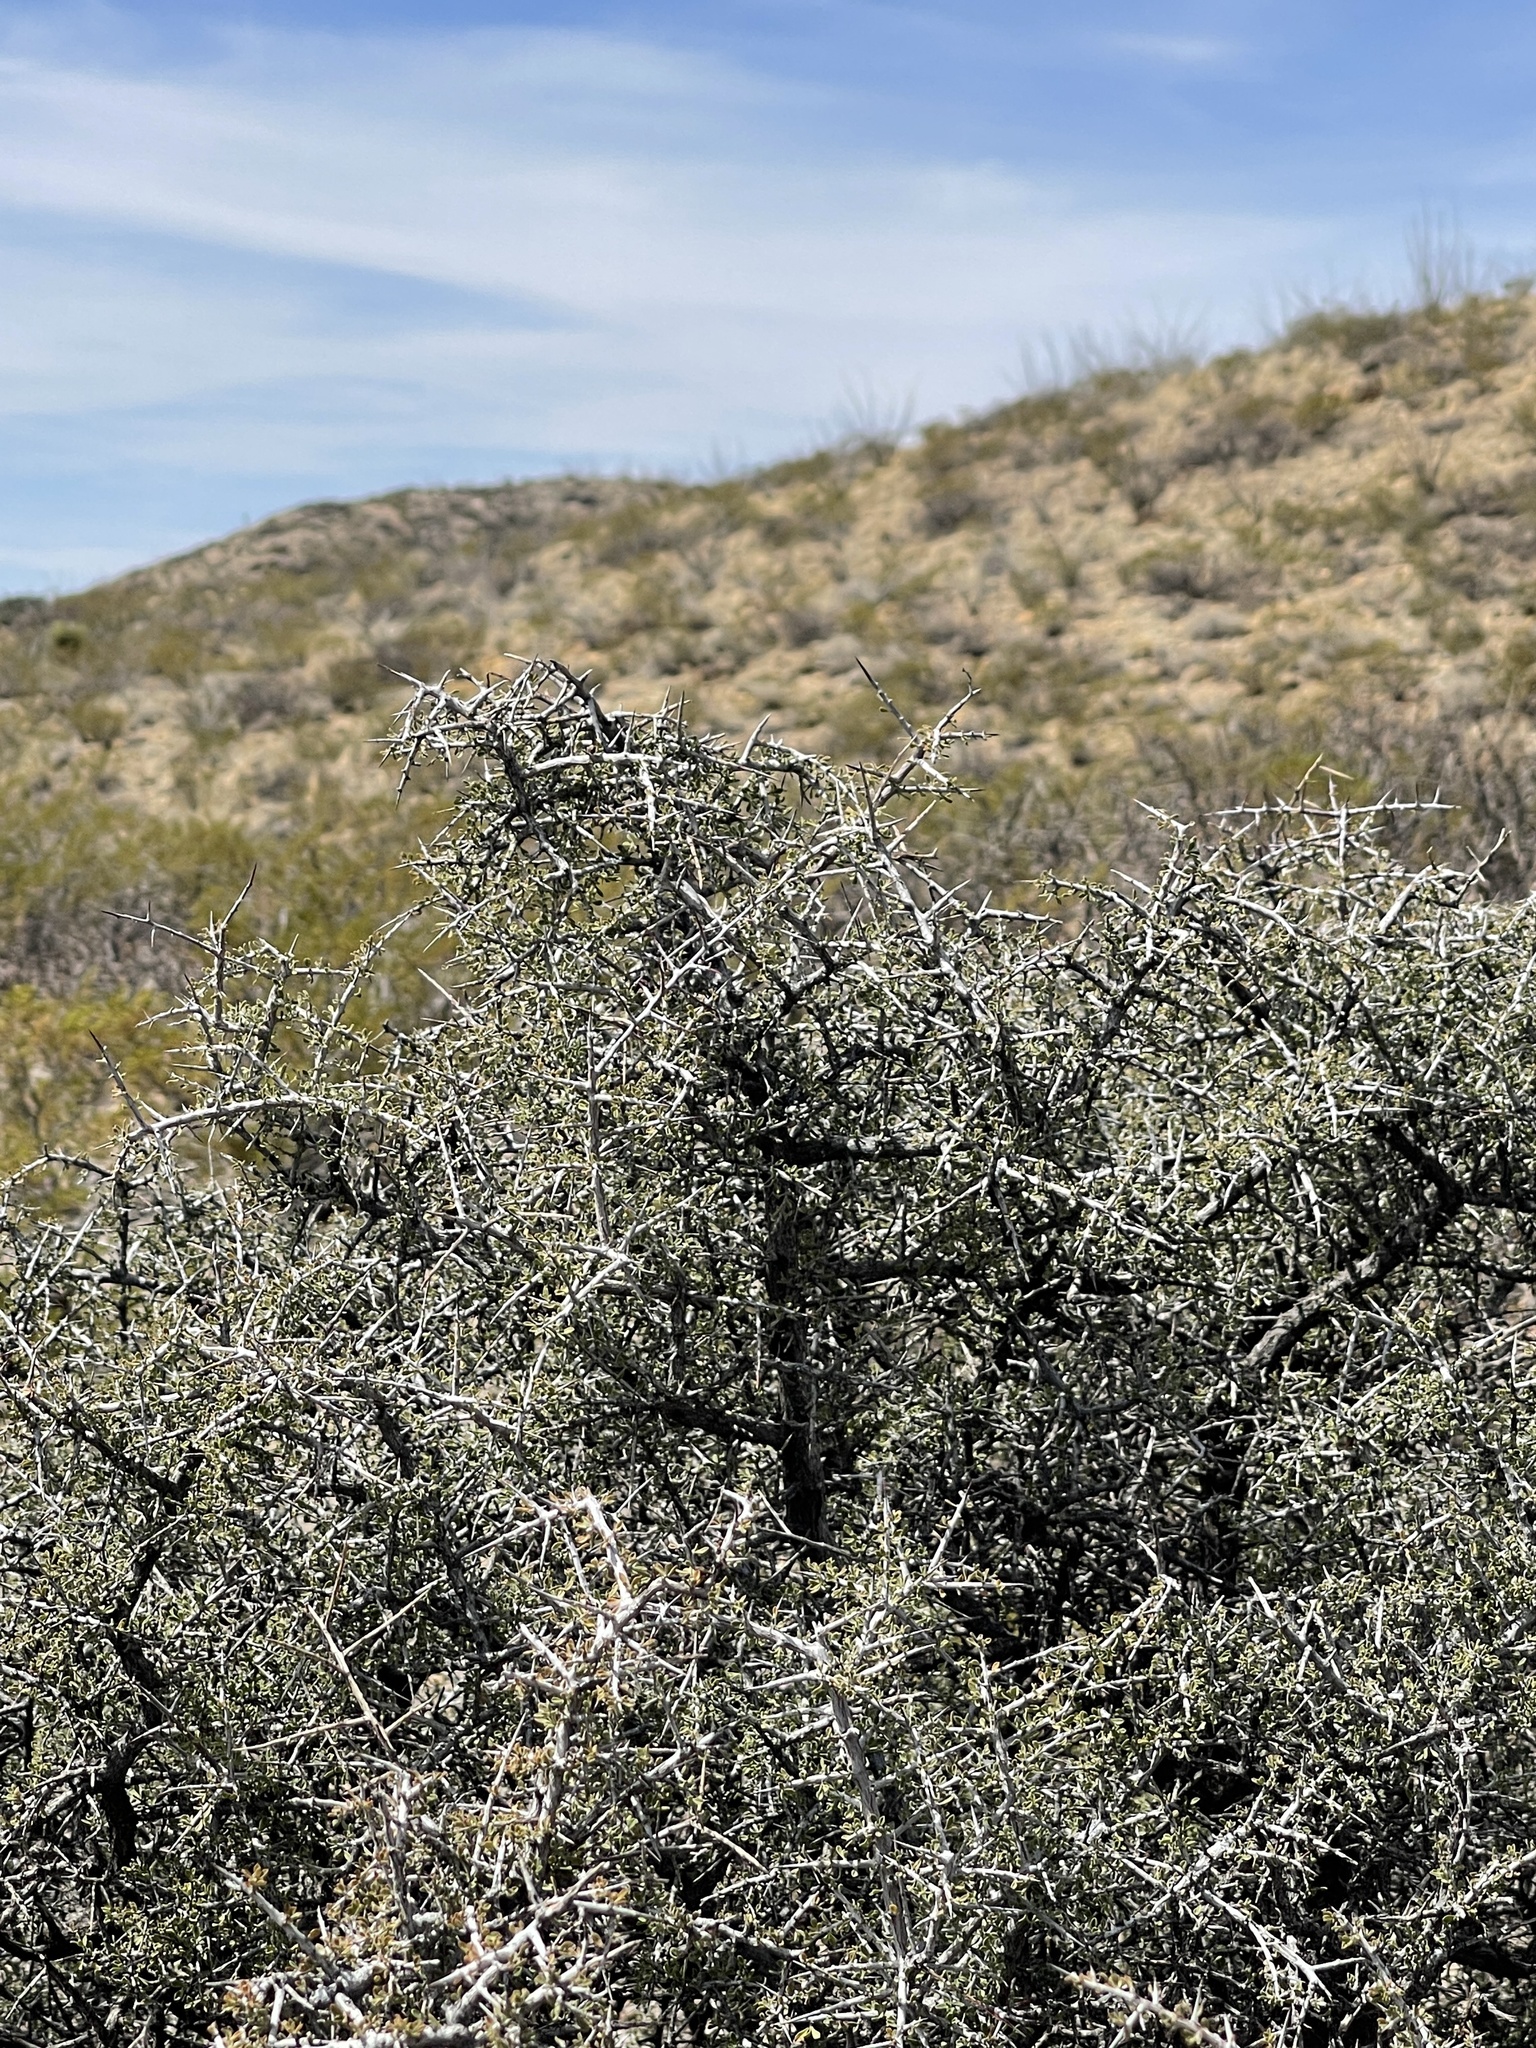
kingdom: Plantae
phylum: Tracheophyta
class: Magnoliopsida
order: Rosales
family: Rhamnaceae
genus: Condalia
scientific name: Condalia warnockii
